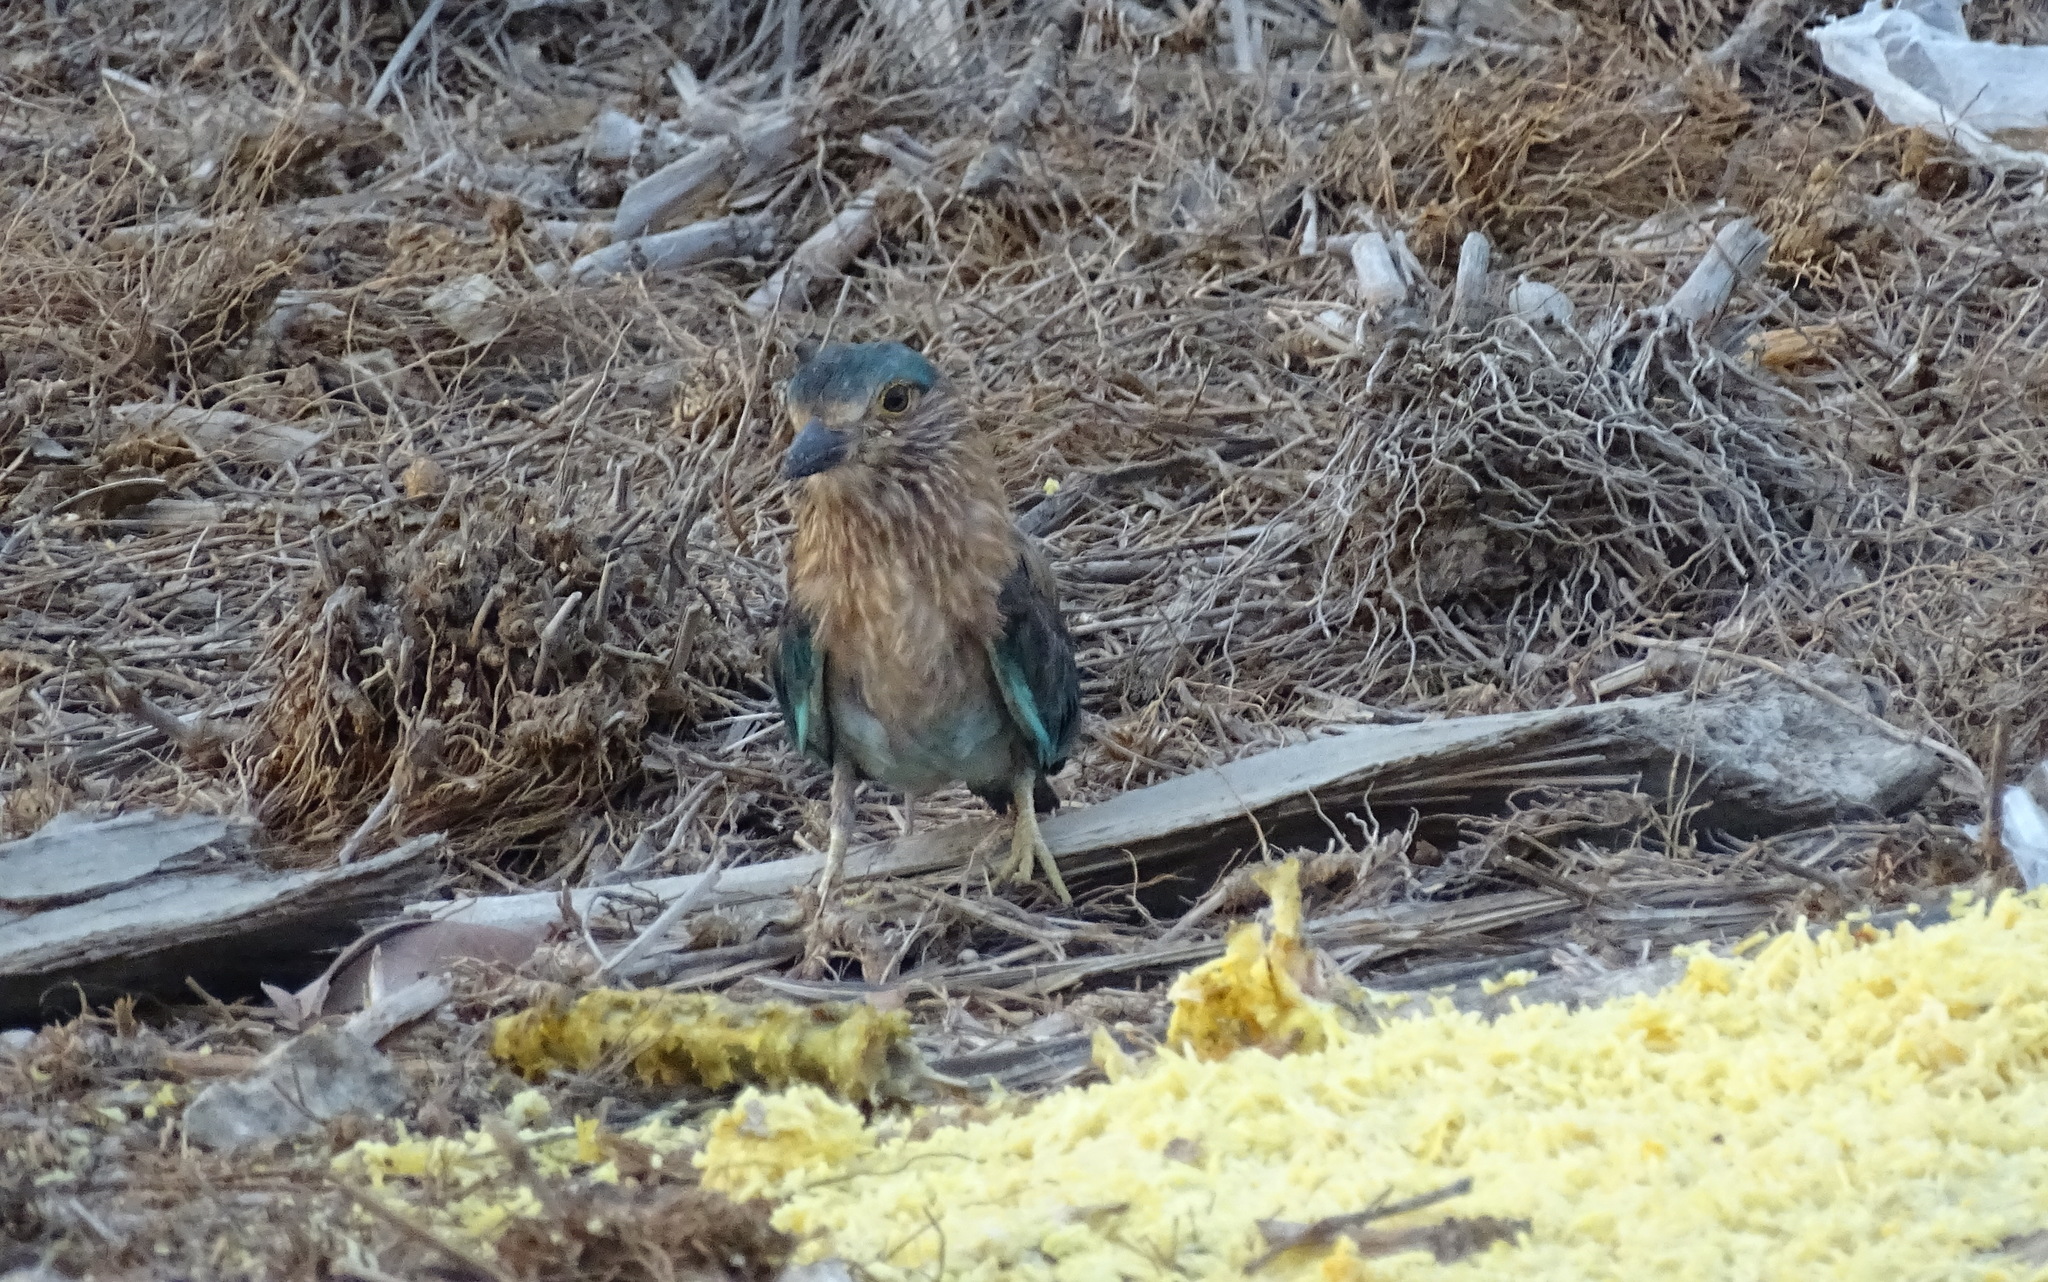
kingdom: Animalia
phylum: Chordata
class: Aves
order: Coraciiformes
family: Coraciidae
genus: Coracias
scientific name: Coracias benghalensis
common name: Indian roller
